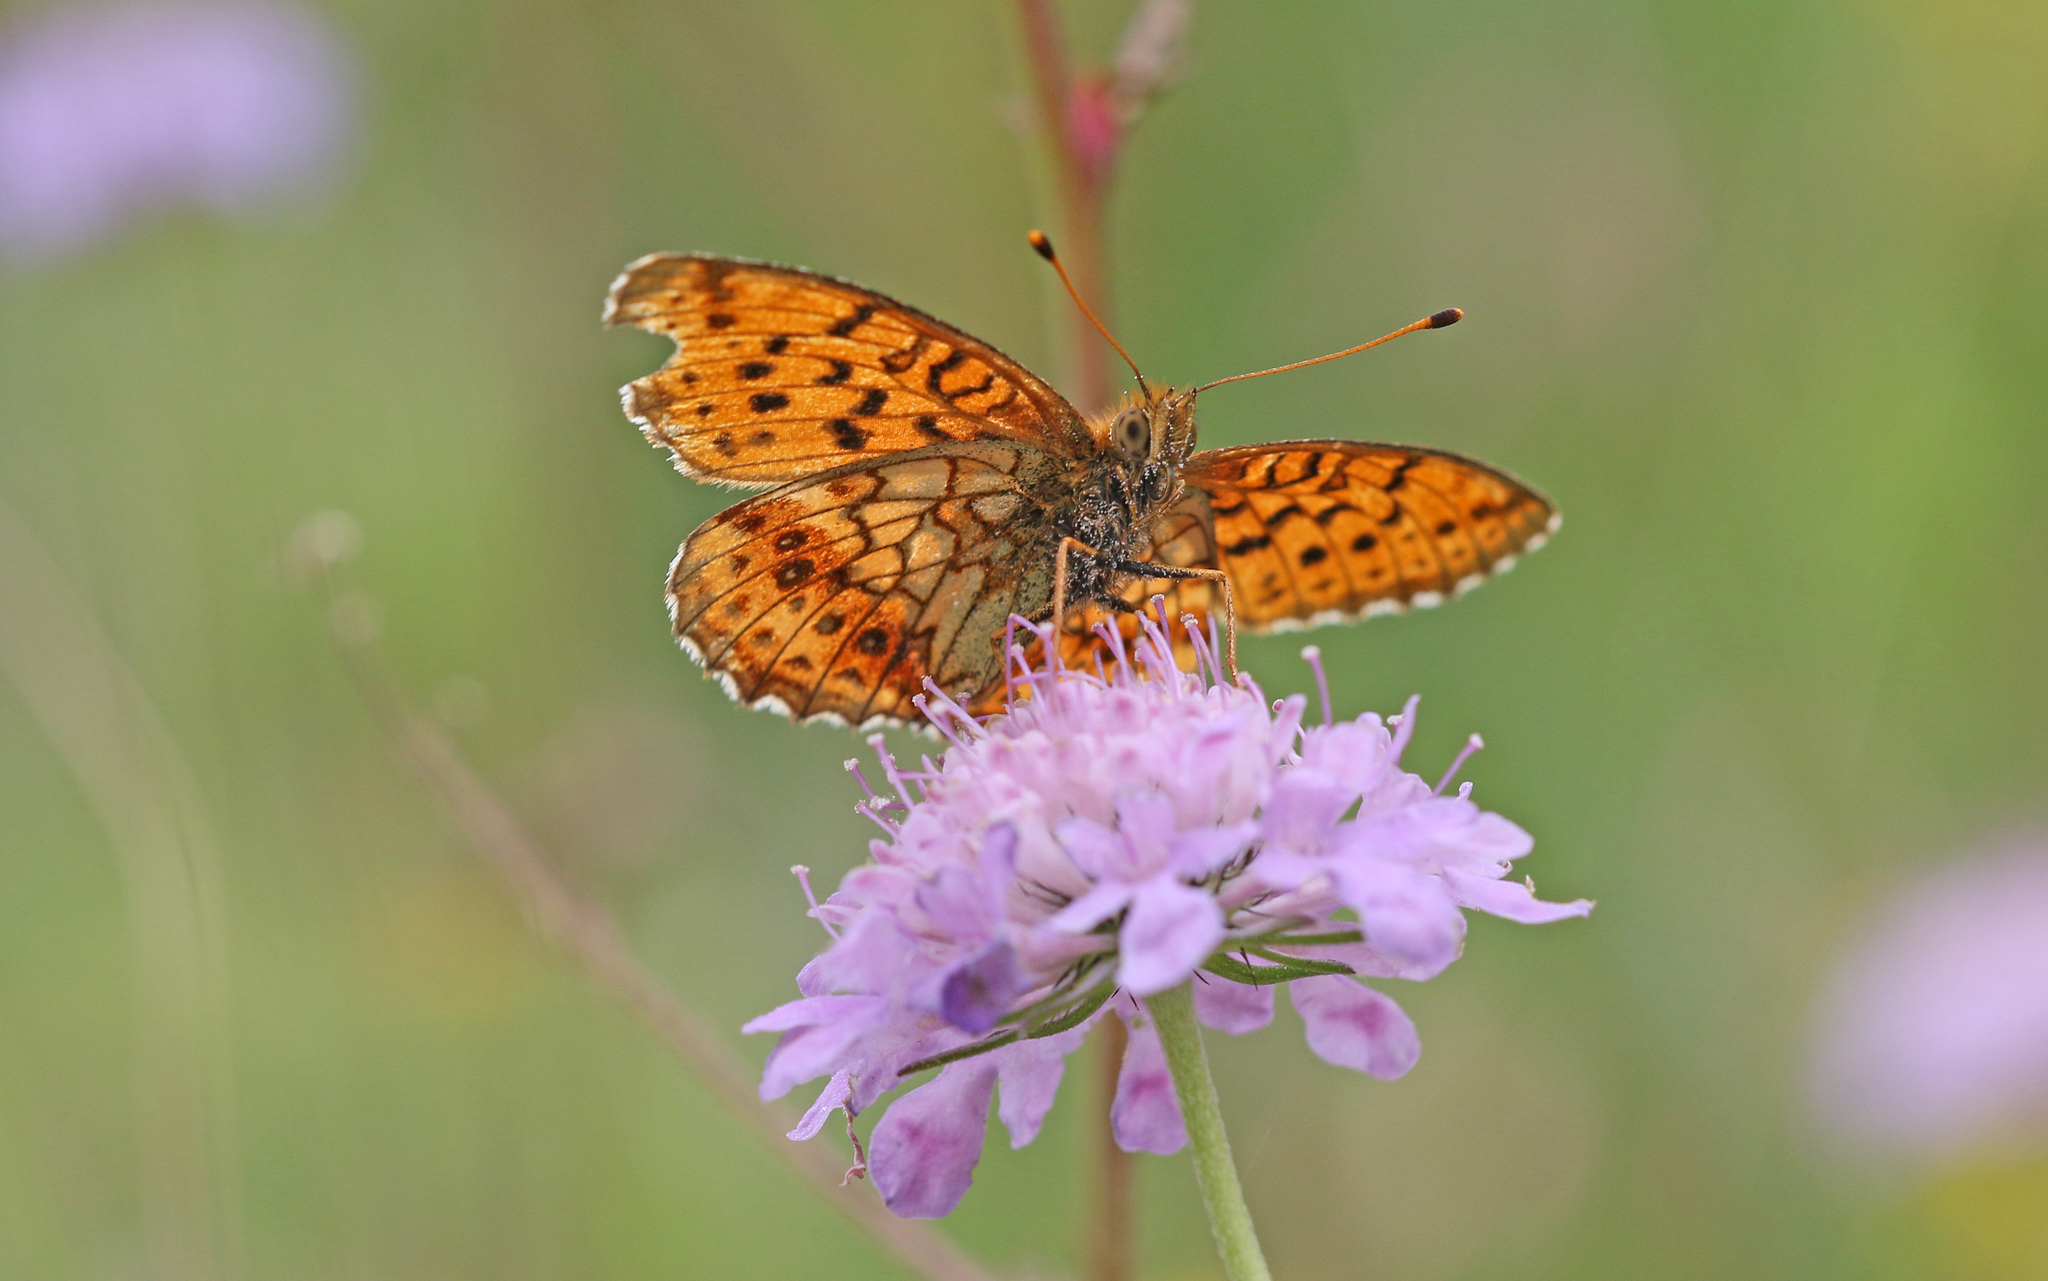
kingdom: Animalia
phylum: Arthropoda
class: Insecta
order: Lepidoptera
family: Nymphalidae
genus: Brenthis
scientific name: Brenthis ino
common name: Lesser marbled fritillary
